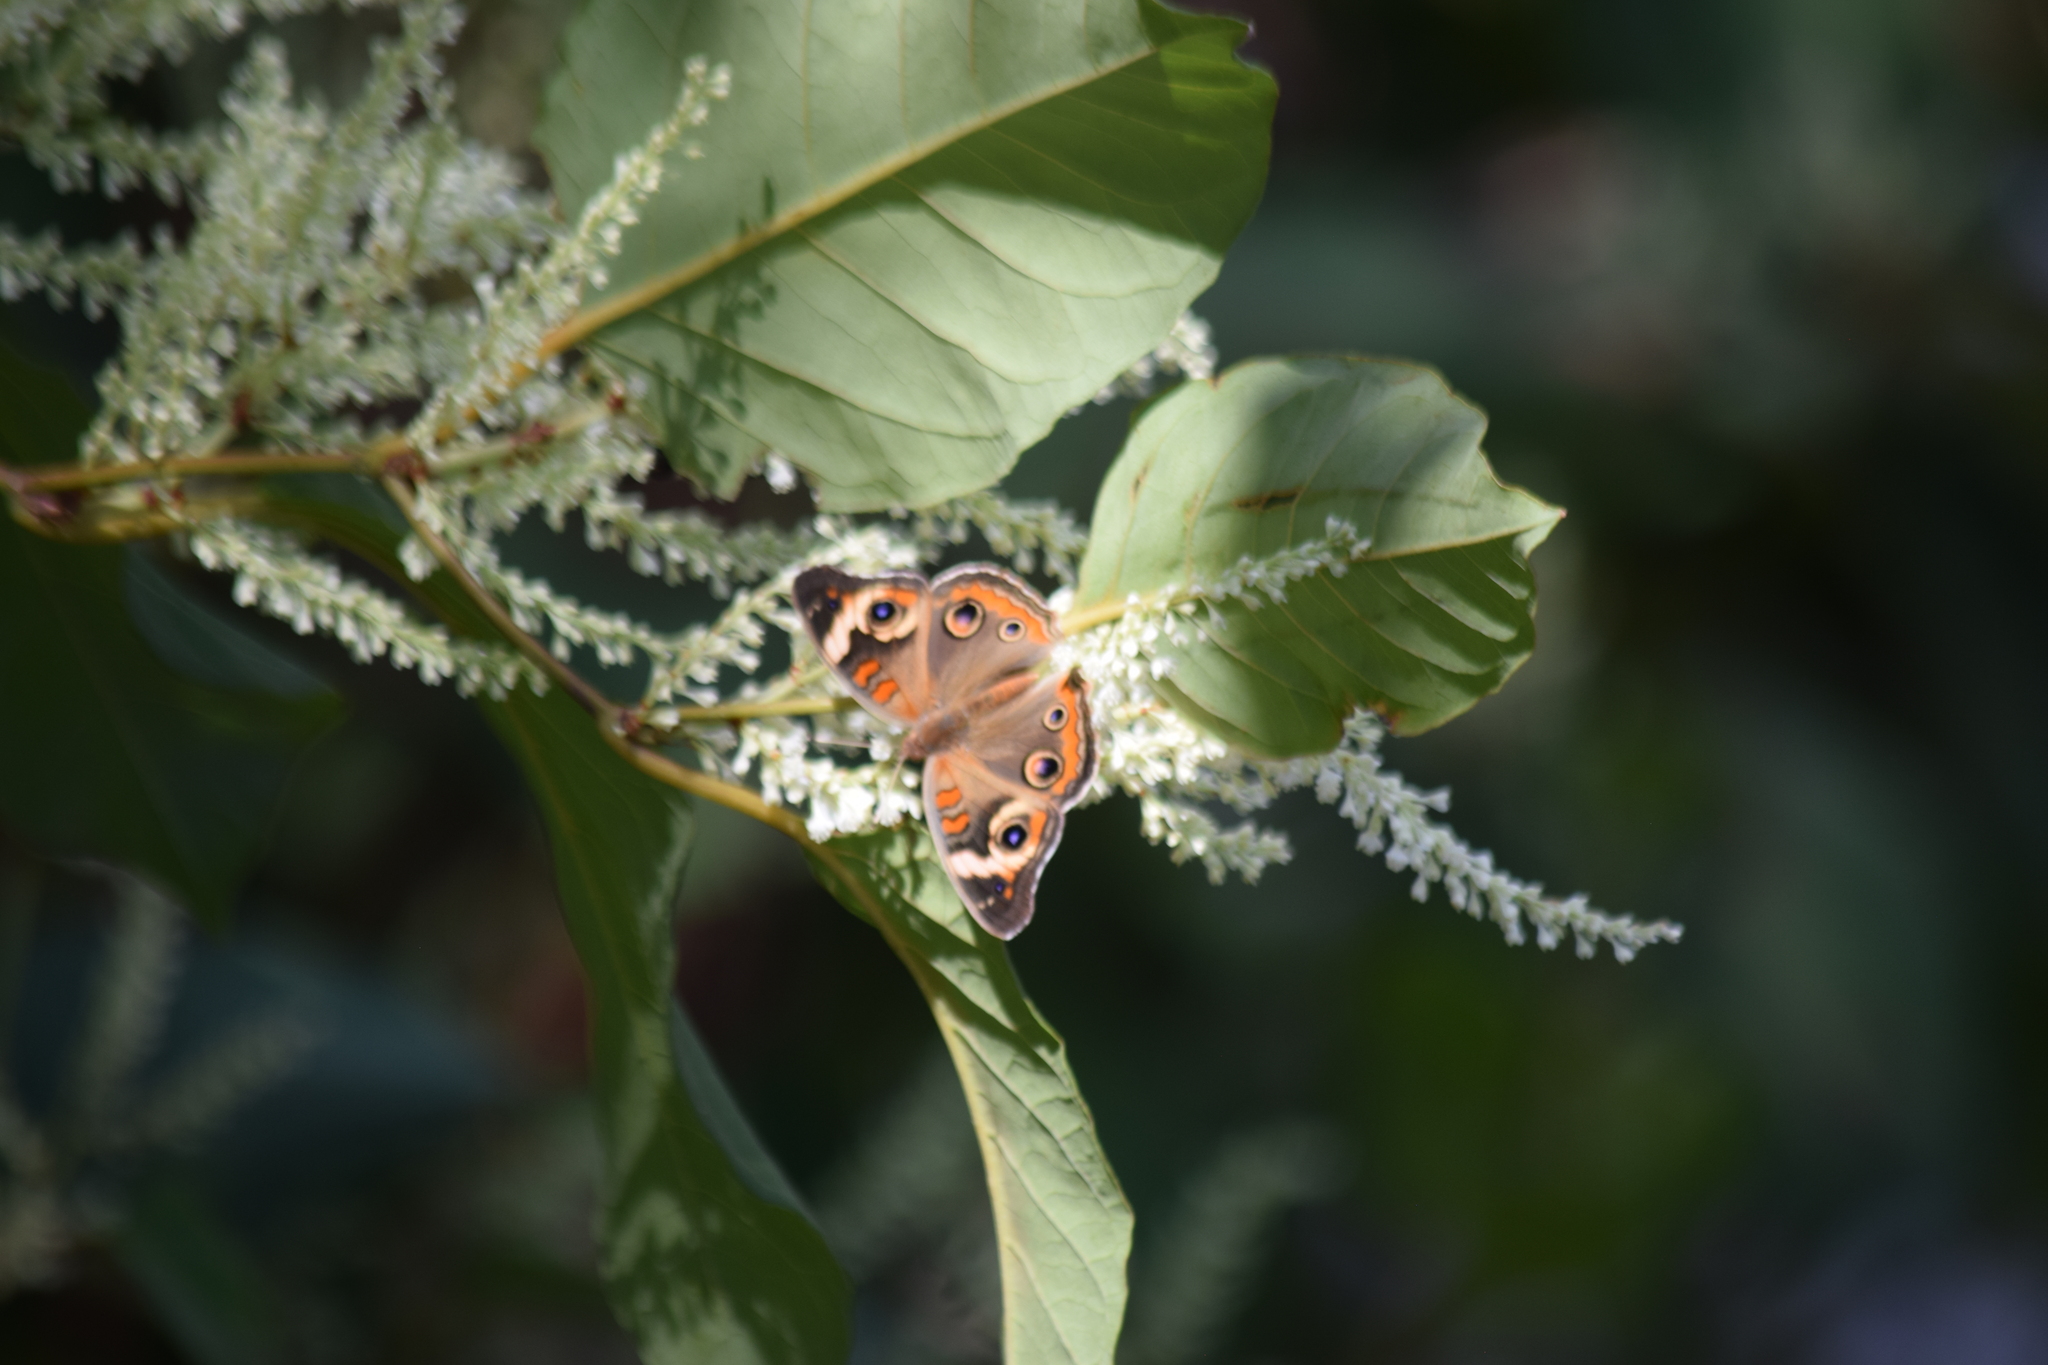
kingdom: Animalia
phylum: Arthropoda
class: Insecta
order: Lepidoptera
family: Nymphalidae
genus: Junonia
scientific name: Junonia coenia
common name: Common buckeye
